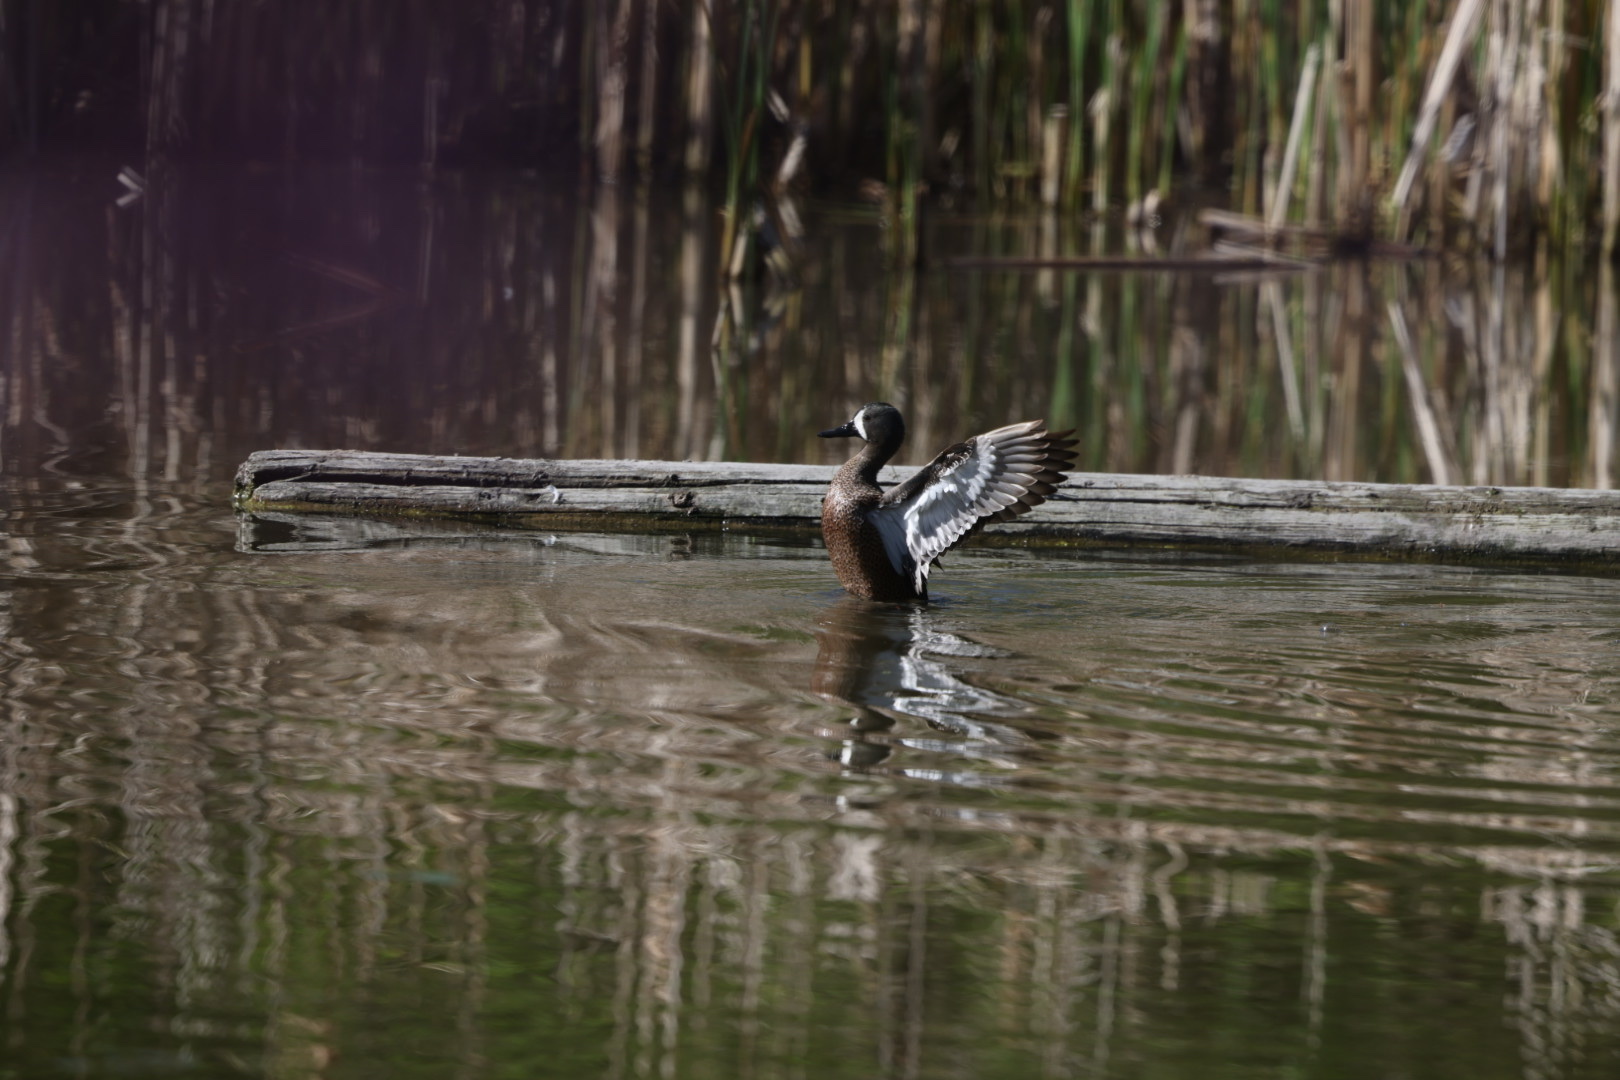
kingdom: Animalia
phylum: Chordata
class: Aves
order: Anseriformes
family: Anatidae
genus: Spatula
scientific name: Spatula discors
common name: Blue-winged teal
